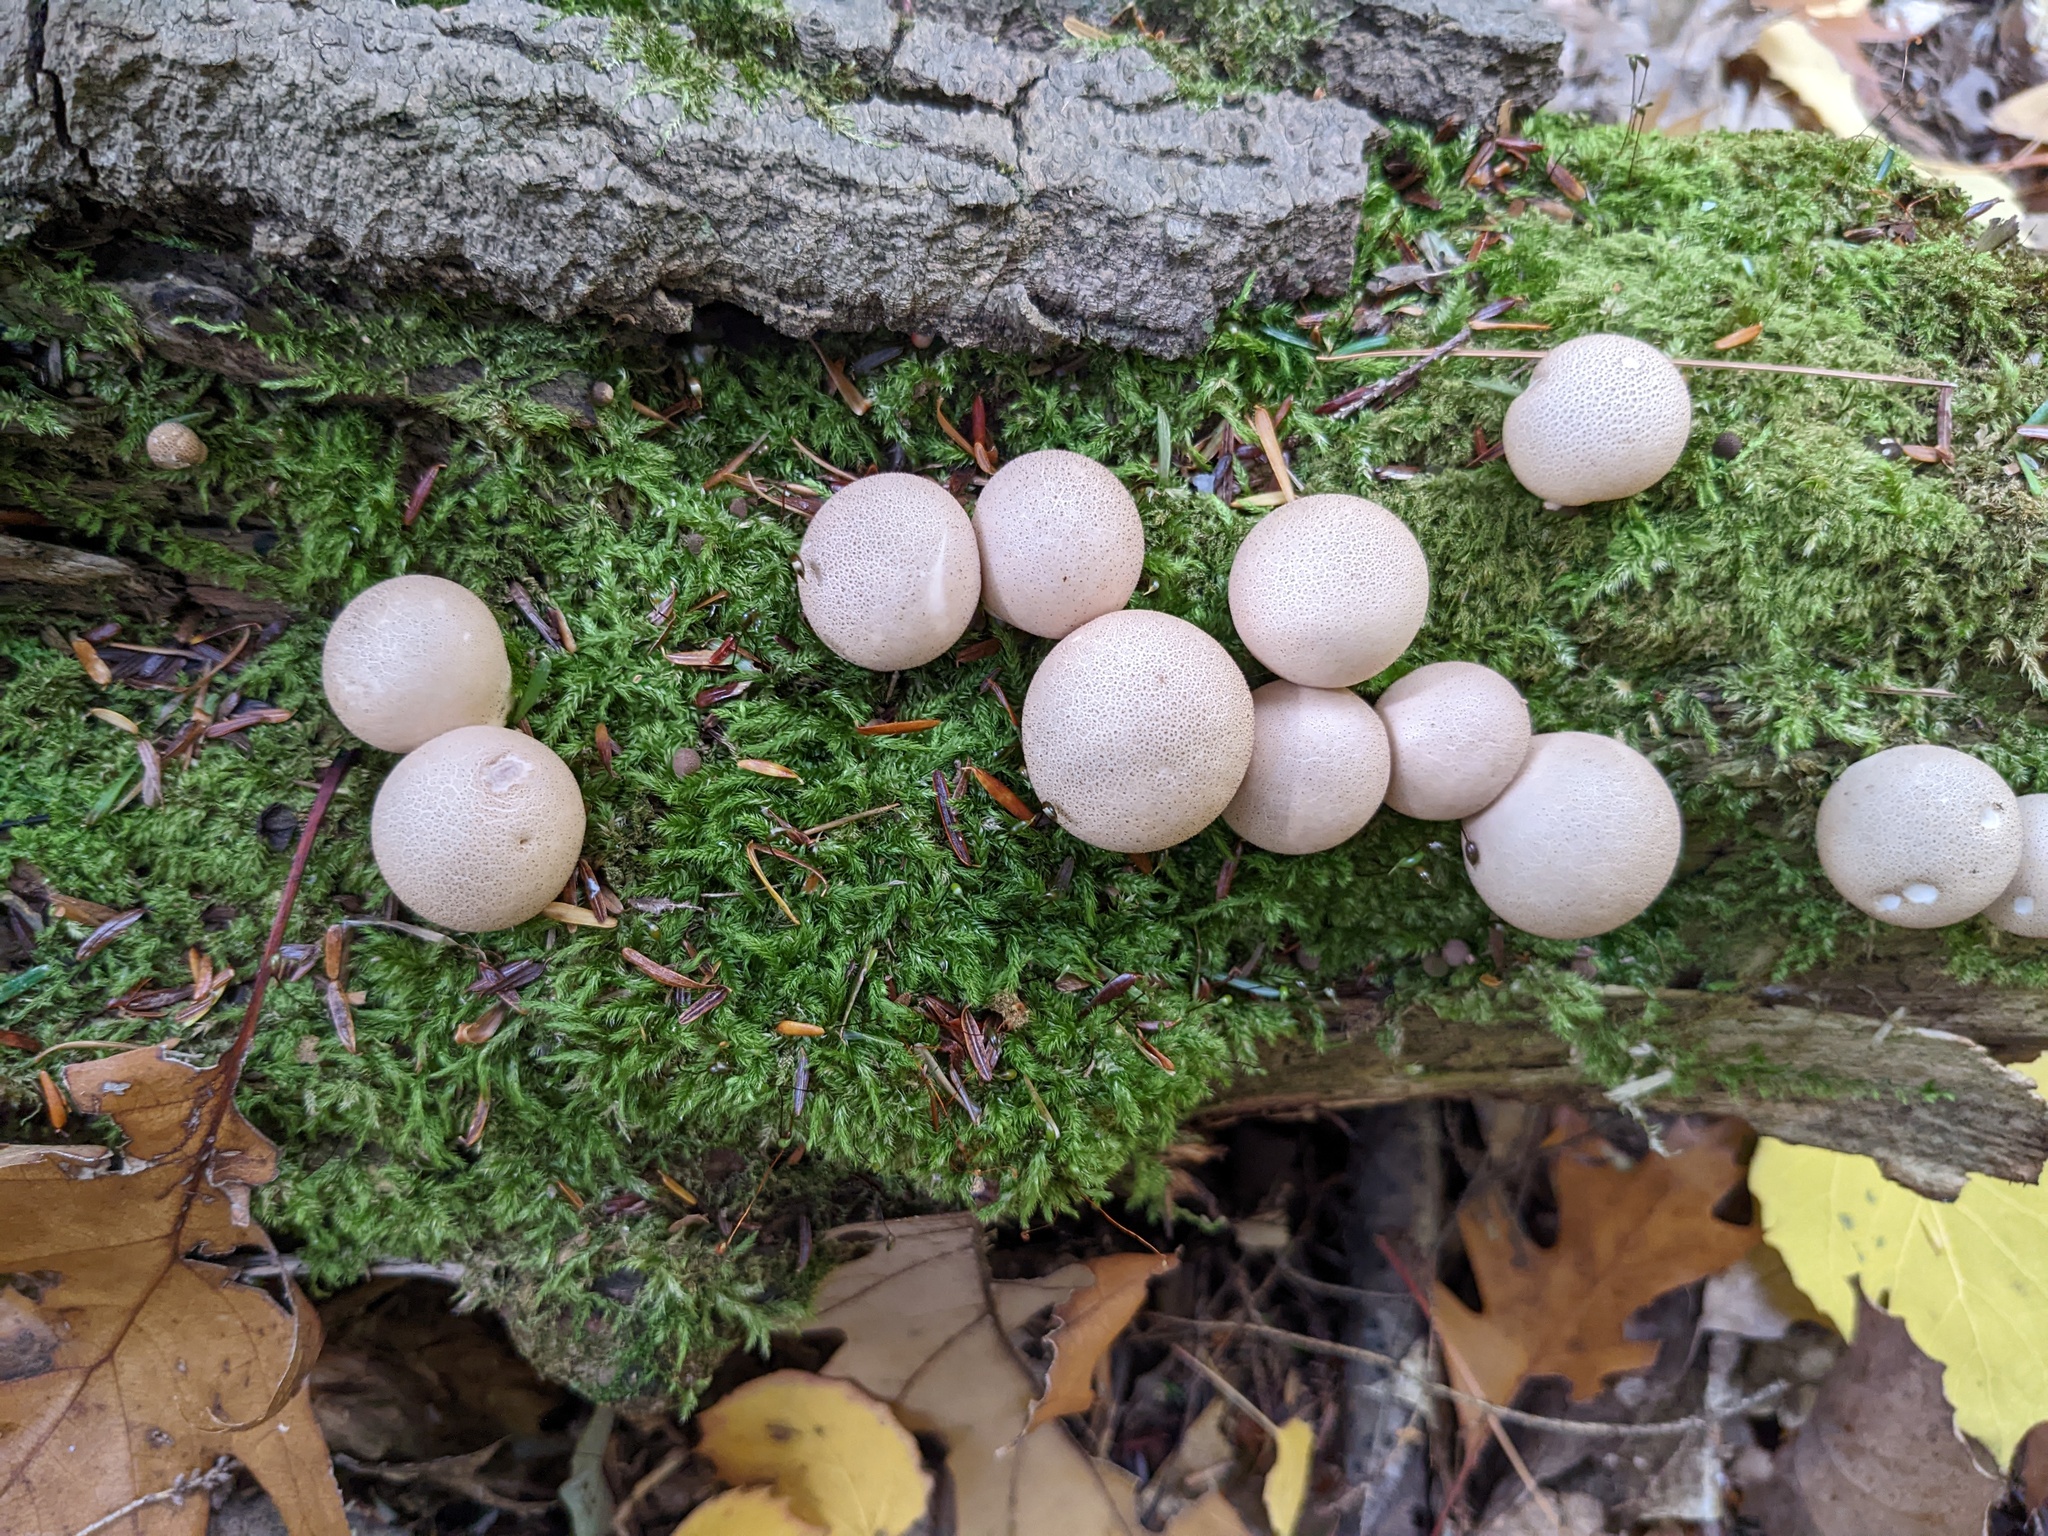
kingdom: Fungi
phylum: Basidiomycota
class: Agaricomycetes
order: Agaricales
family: Lycoperdaceae
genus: Apioperdon
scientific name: Apioperdon pyriforme
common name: Pear-shaped puffball
